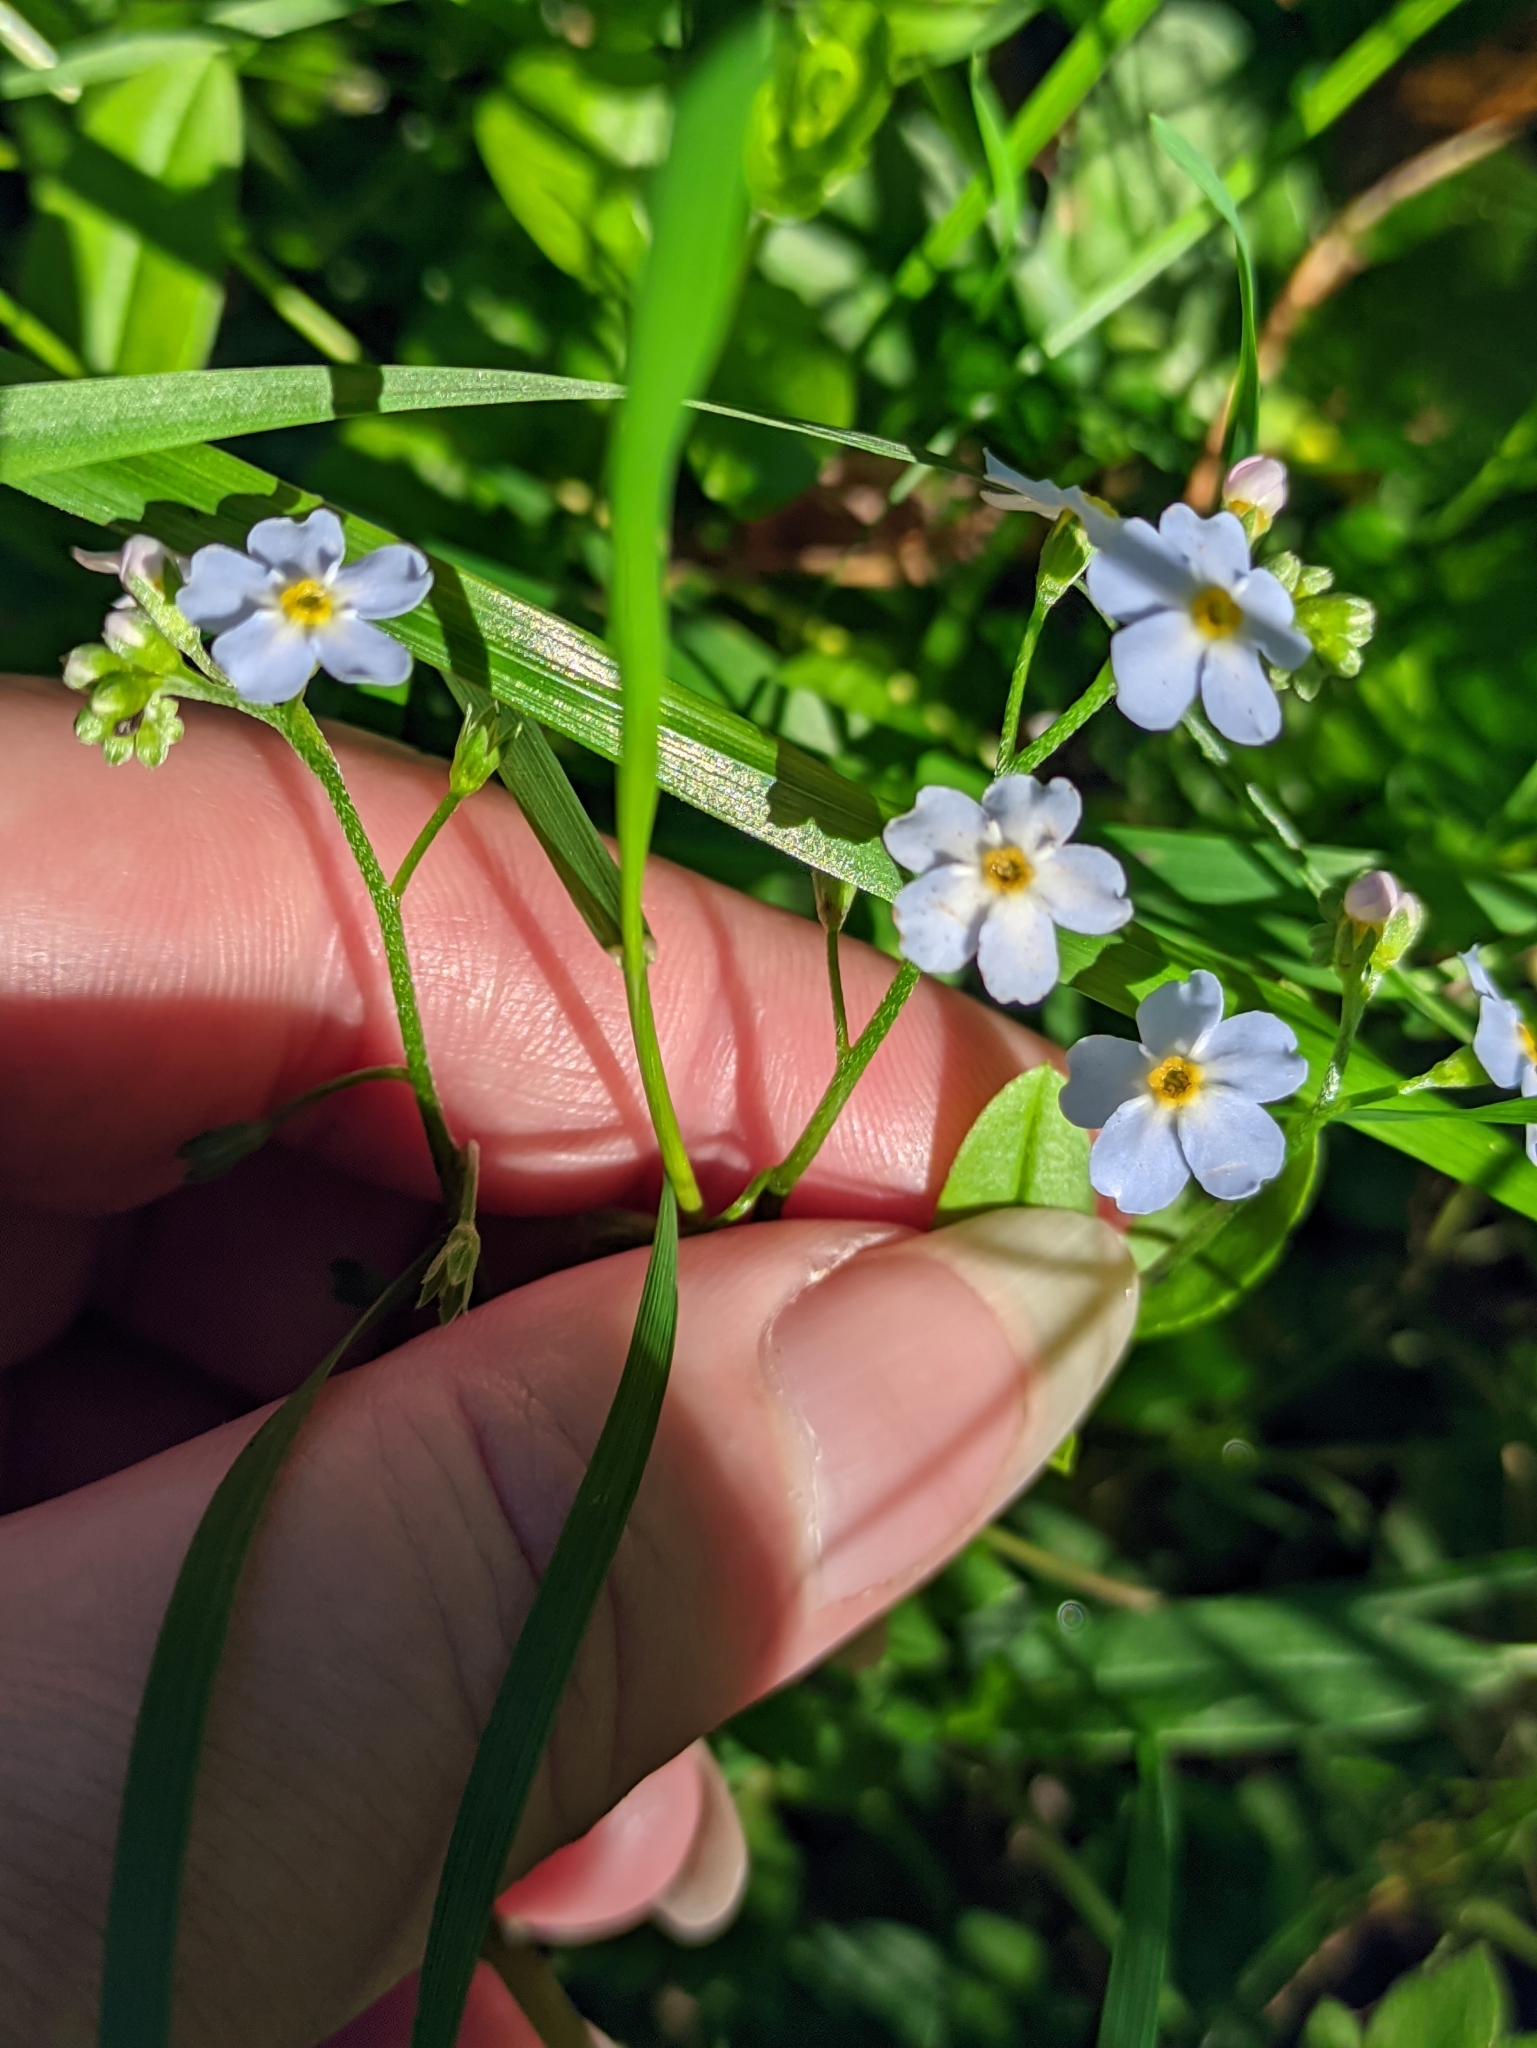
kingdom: Plantae
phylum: Tracheophyta
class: Magnoliopsida
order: Boraginales
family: Boraginaceae
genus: Myosotis
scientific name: Myosotis scorpioides
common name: Water forget-me-not
